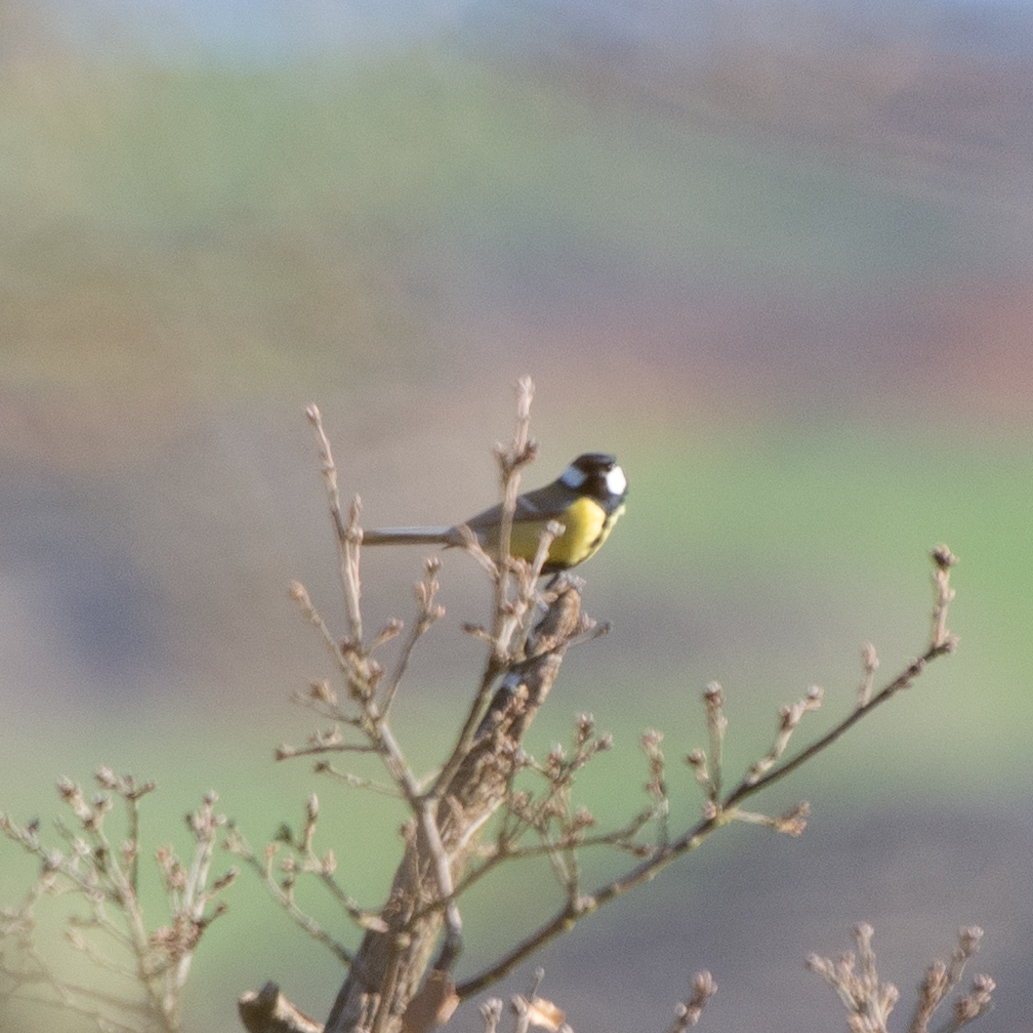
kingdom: Animalia
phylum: Chordata
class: Aves
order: Passeriformes
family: Paridae
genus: Parus
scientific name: Parus major
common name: Great tit
